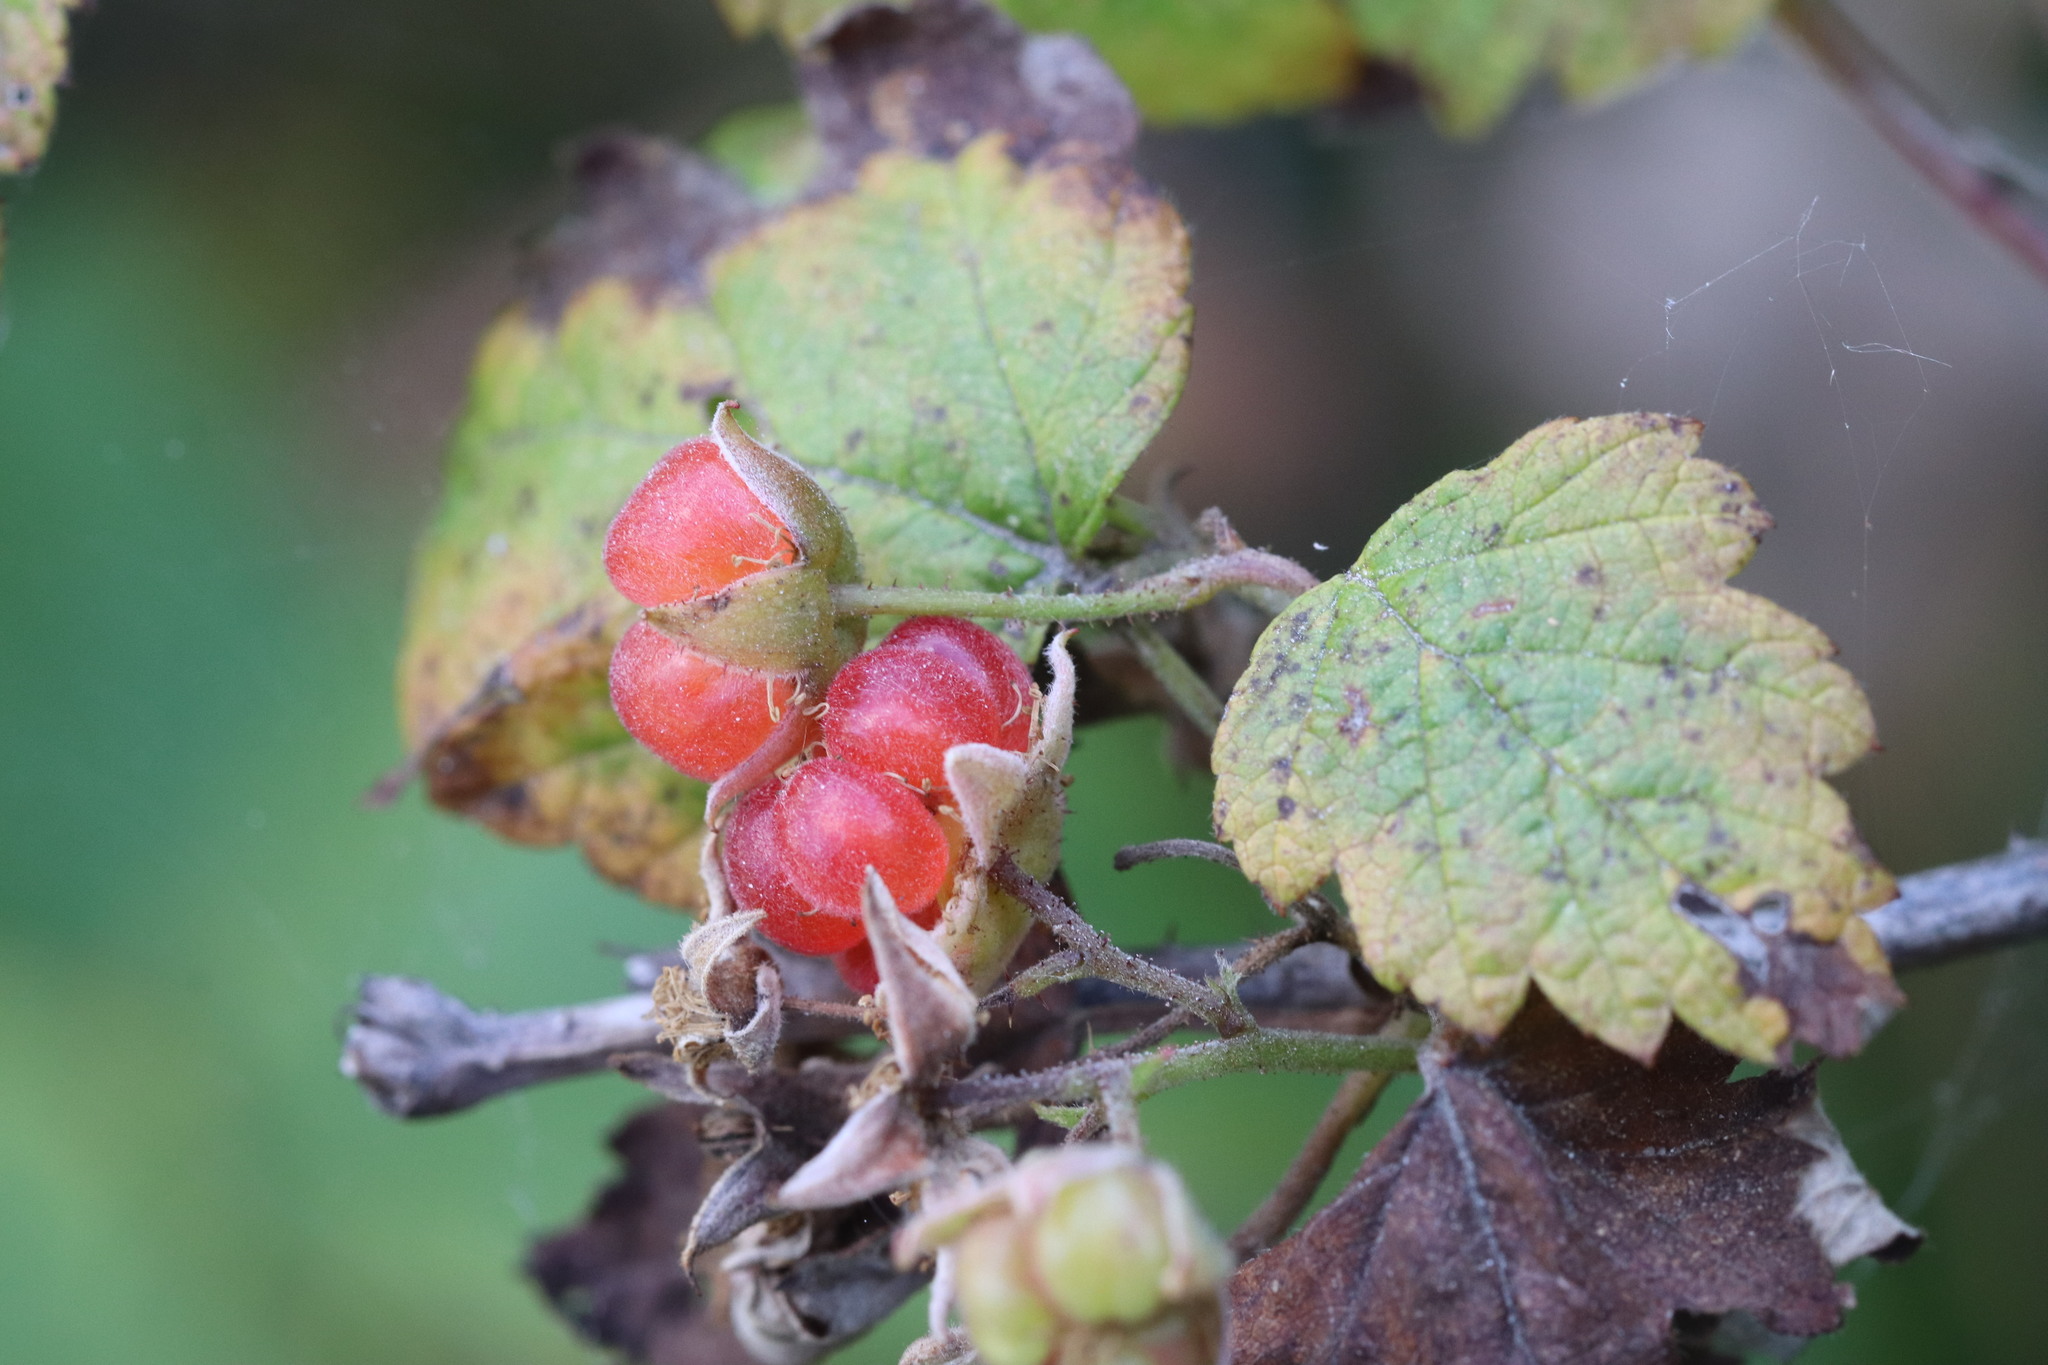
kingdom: Plantae
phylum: Tracheophyta
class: Magnoliopsida
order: Rosales
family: Rosaceae
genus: Rubus
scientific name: Rubus idaeus
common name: Raspberry
